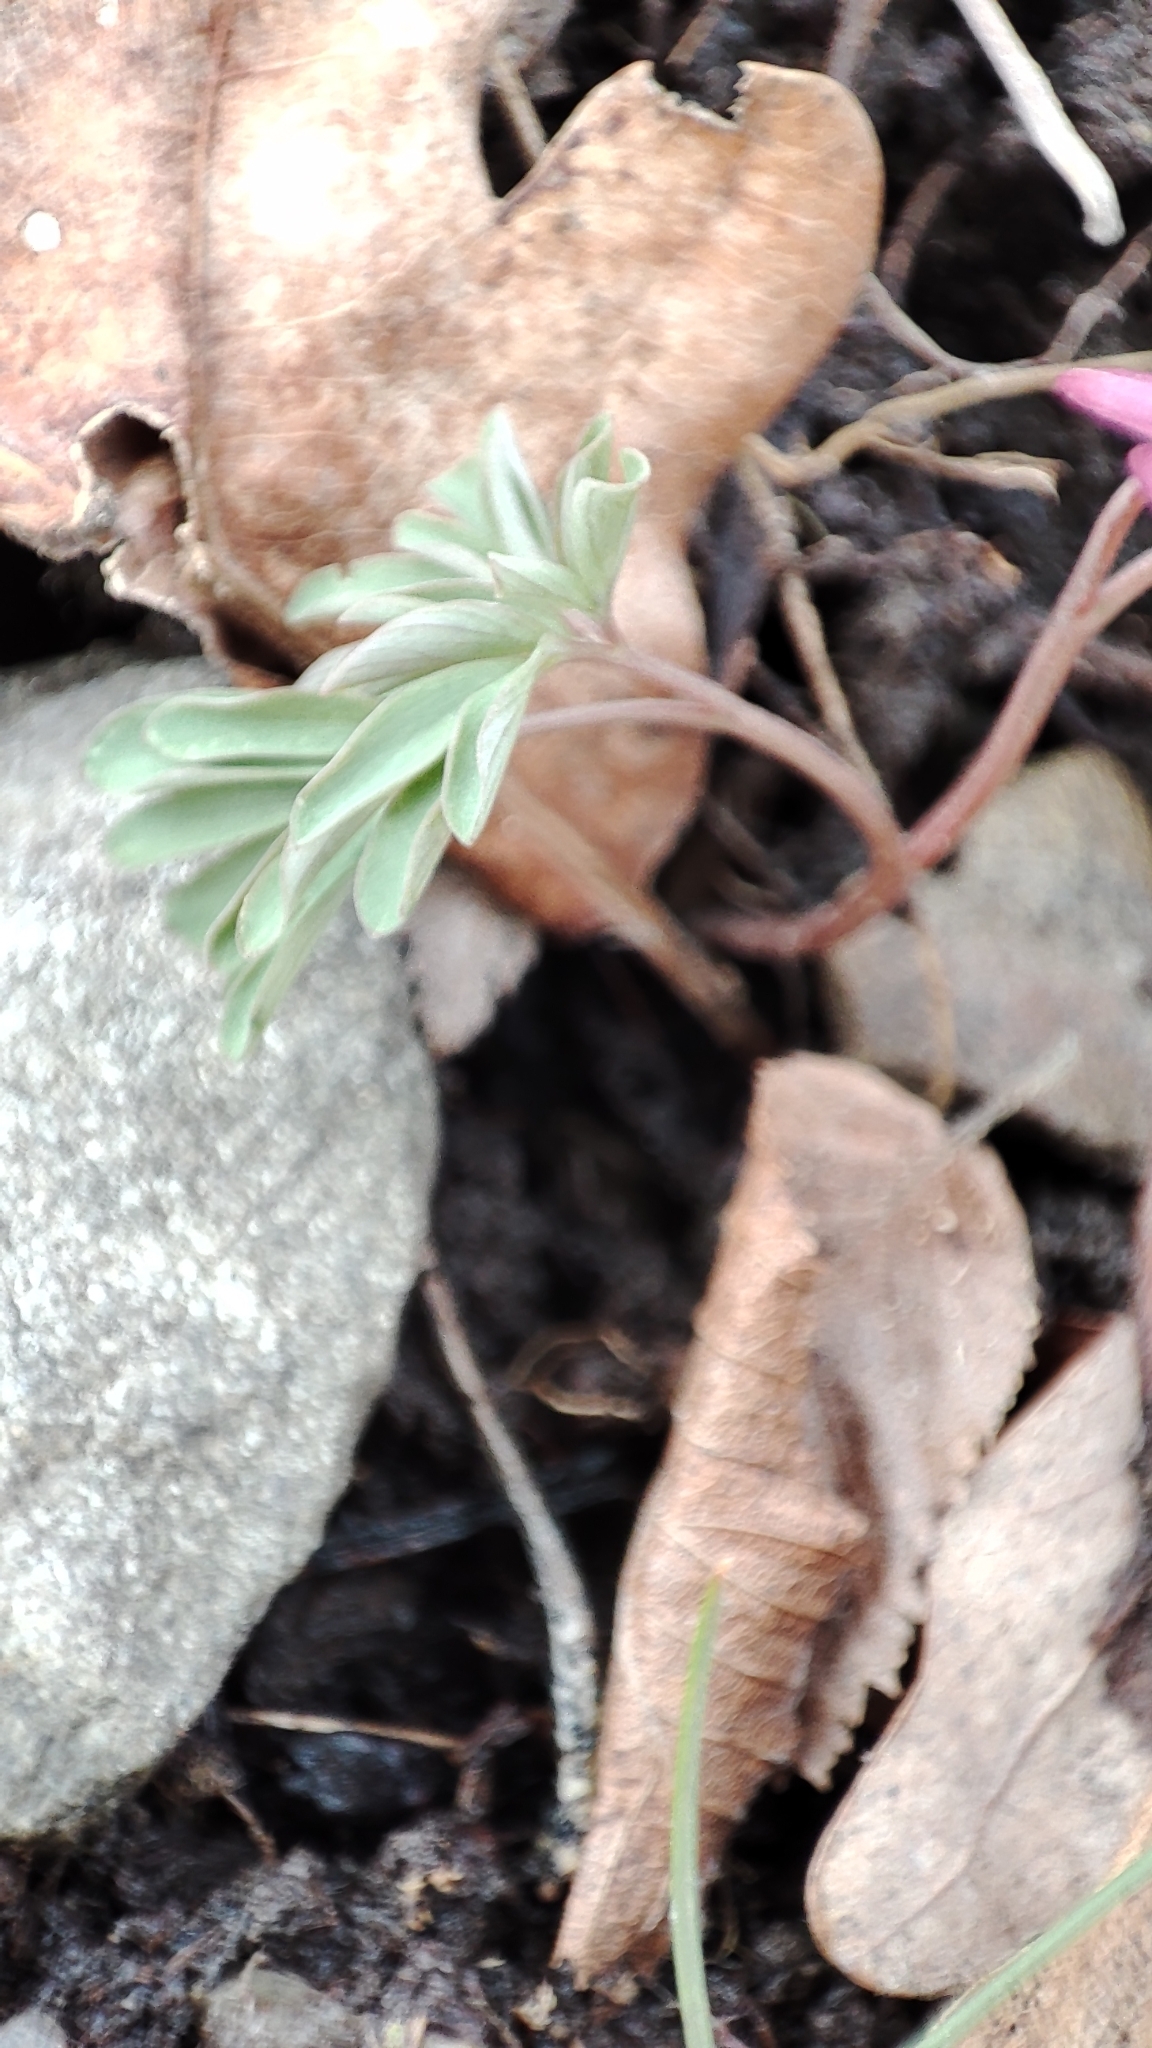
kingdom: Plantae
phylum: Tracheophyta
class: Magnoliopsida
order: Ranunculales
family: Papaveraceae
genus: Corydalis
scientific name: Corydalis solida
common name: Bird-in-a-bush
